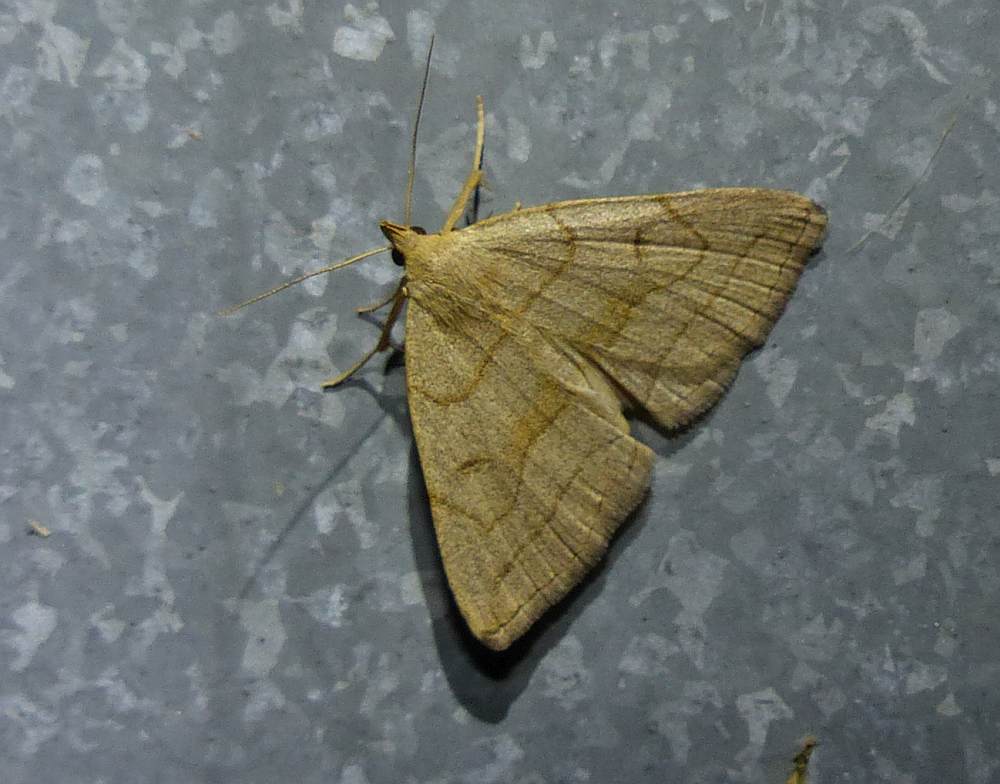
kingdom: Animalia
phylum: Arthropoda
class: Insecta
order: Lepidoptera
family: Erebidae
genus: Zanclognatha
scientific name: Zanclognatha pedipilalis
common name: Grayish fan-foot
